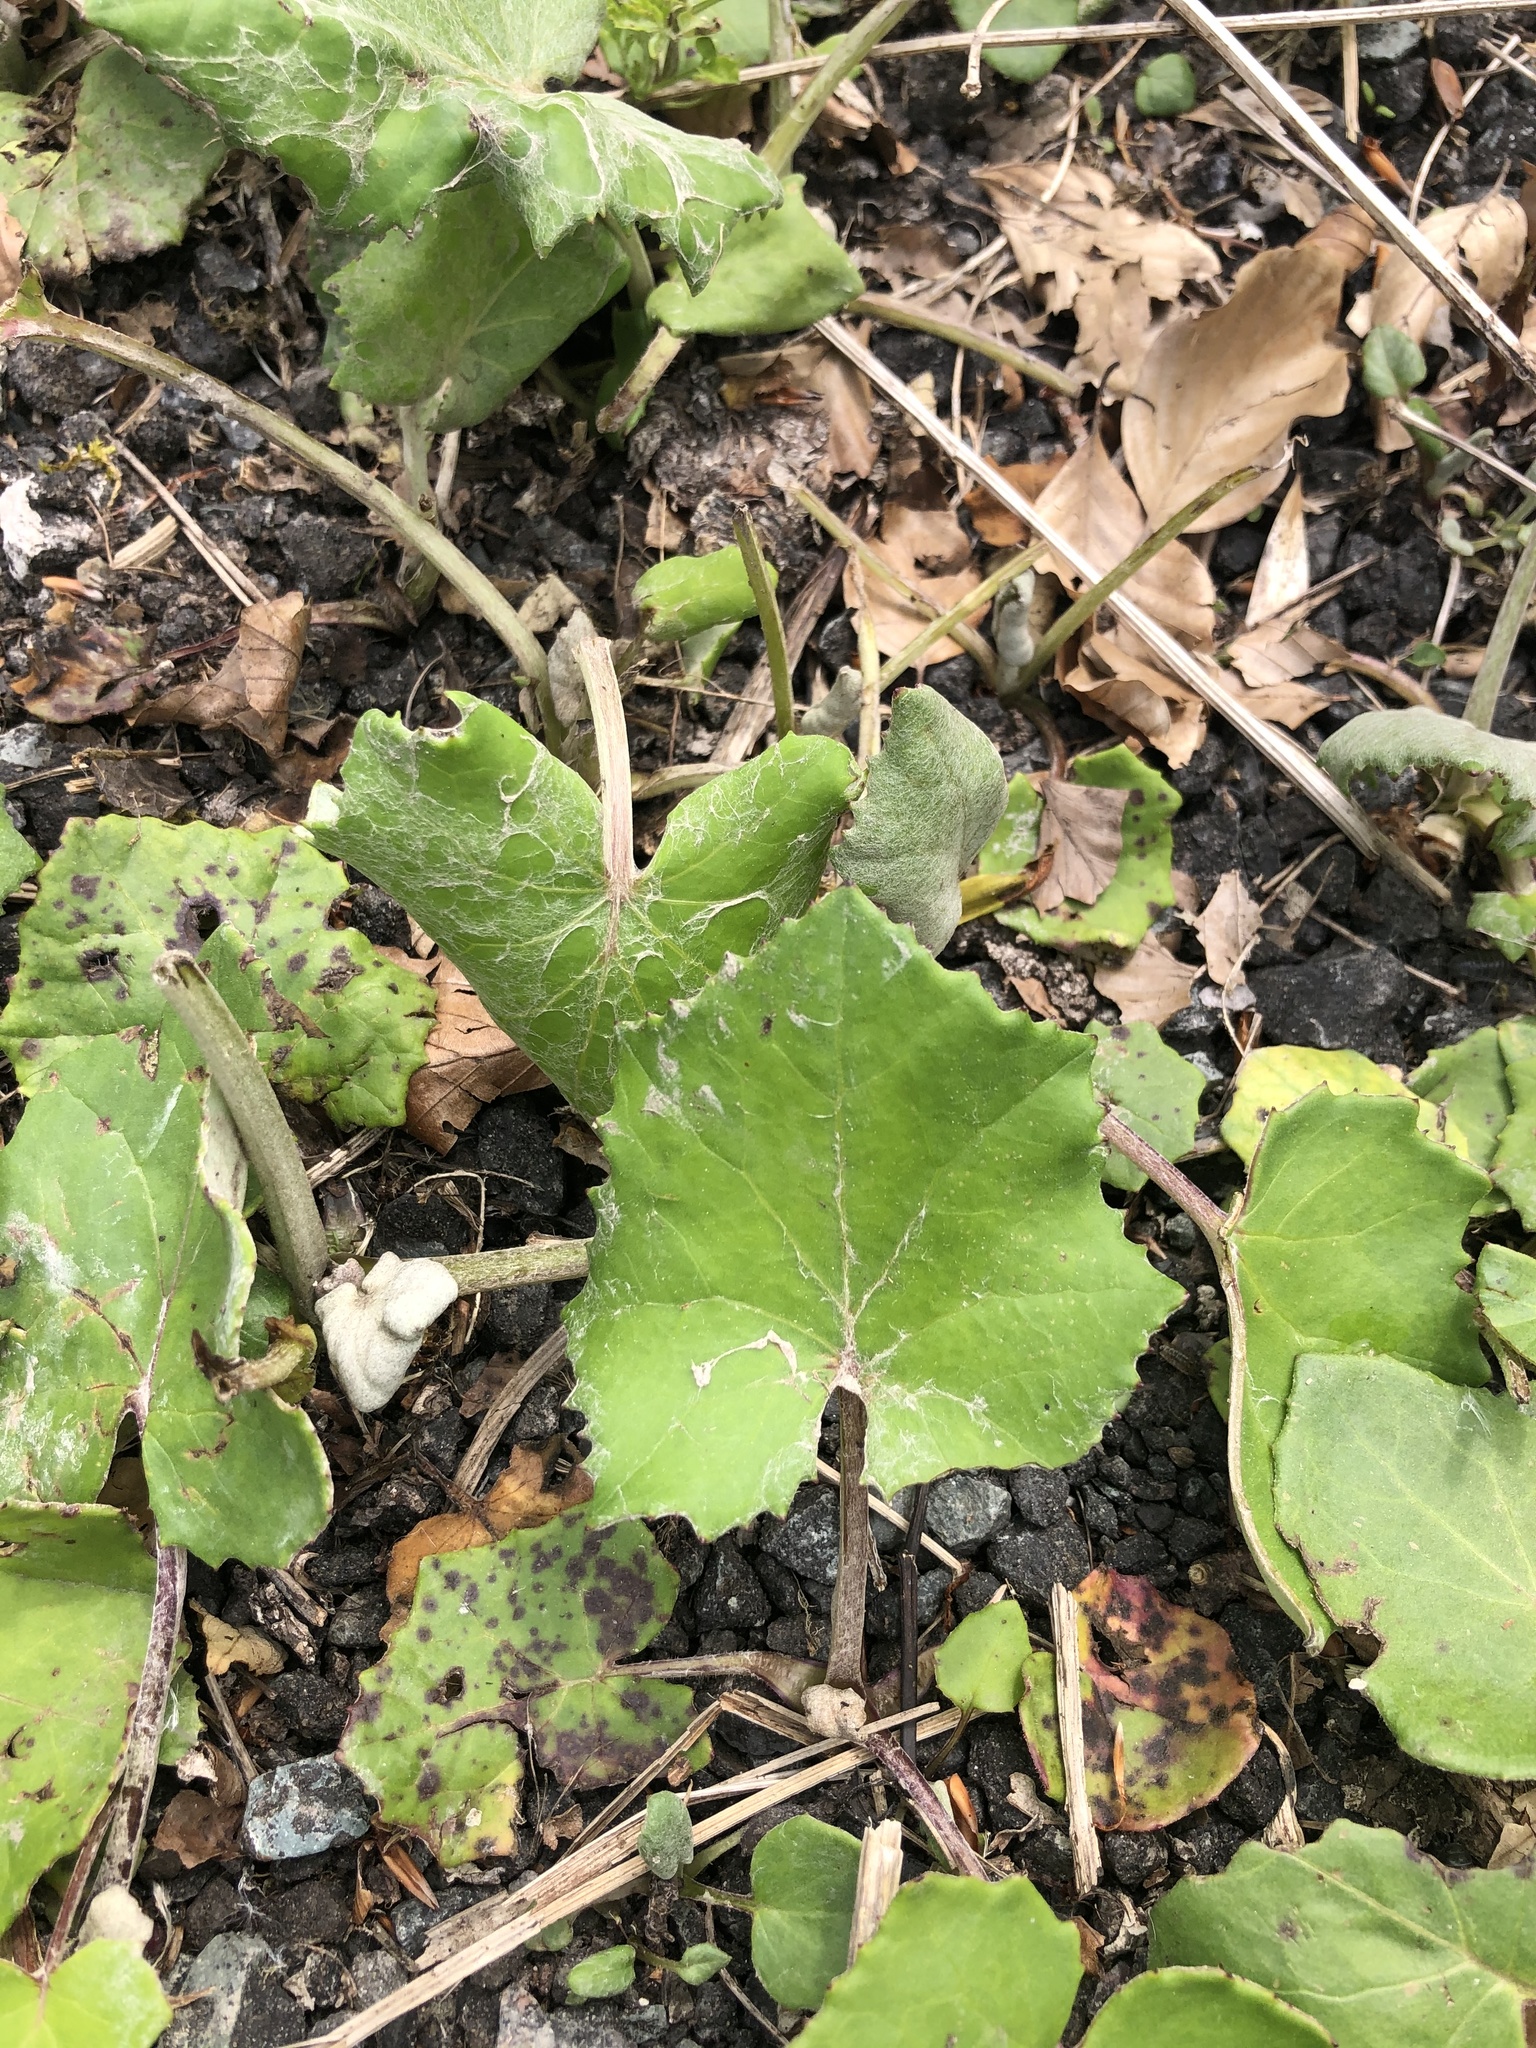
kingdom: Plantae
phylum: Tracheophyta
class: Magnoliopsida
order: Asterales
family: Asteraceae
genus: Tussilago
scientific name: Tussilago farfara
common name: Coltsfoot
